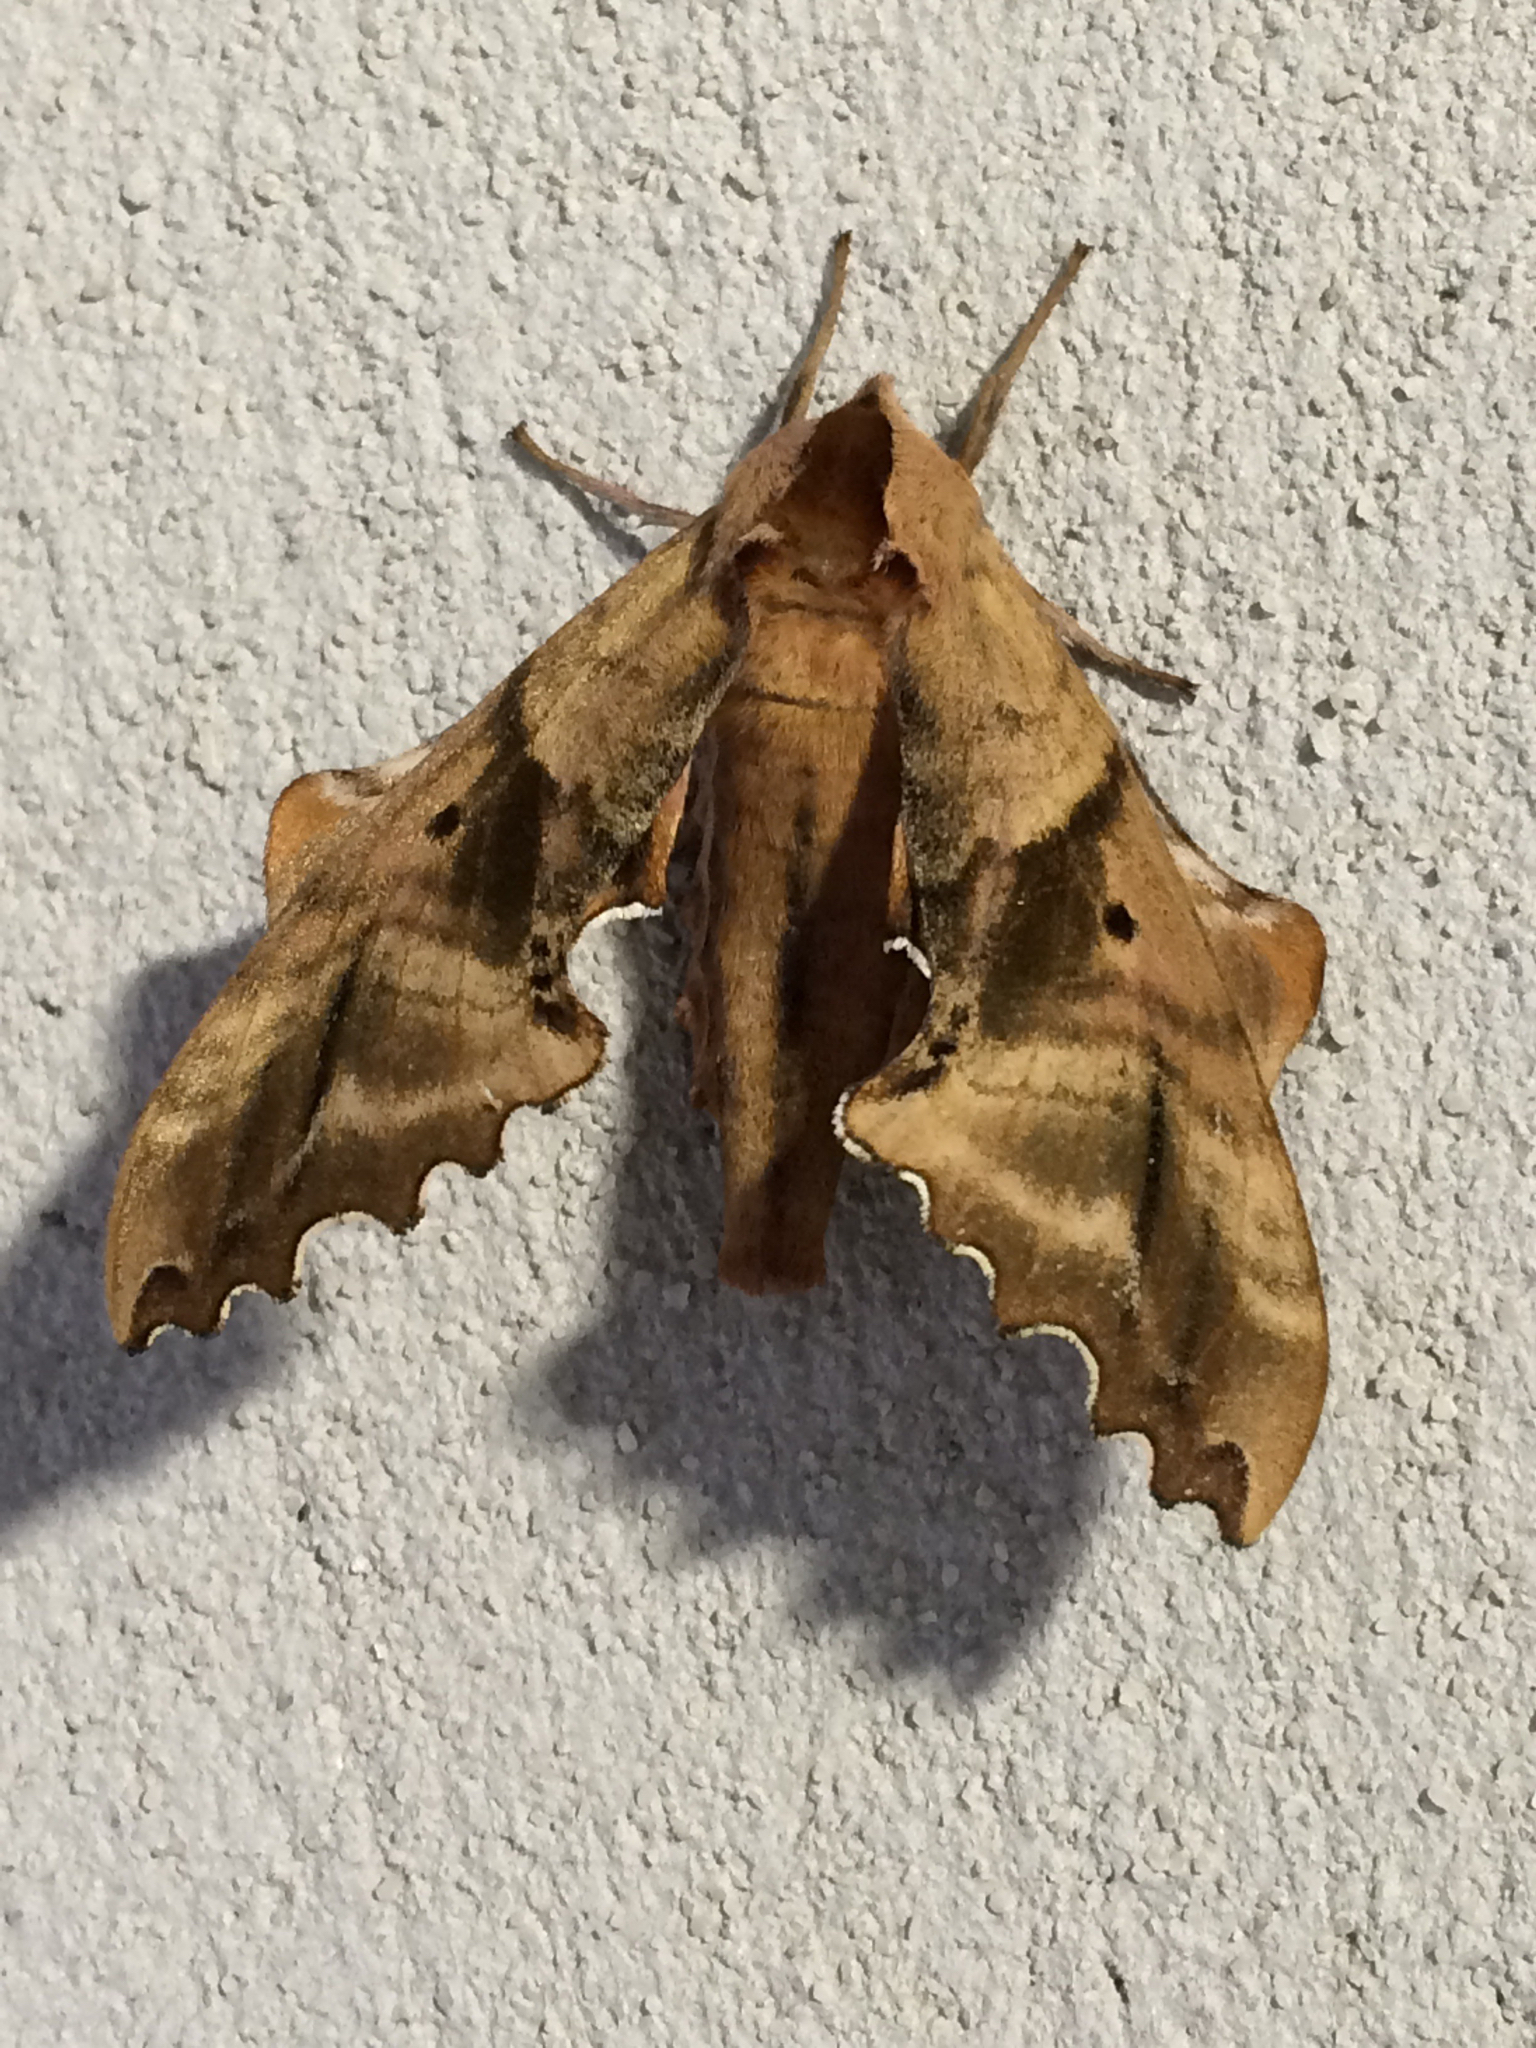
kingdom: Animalia
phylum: Arthropoda
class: Insecta
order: Lepidoptera
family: Sphingidae
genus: Paonias
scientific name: Paonias excaecata
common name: Blind-eyed sphinx
